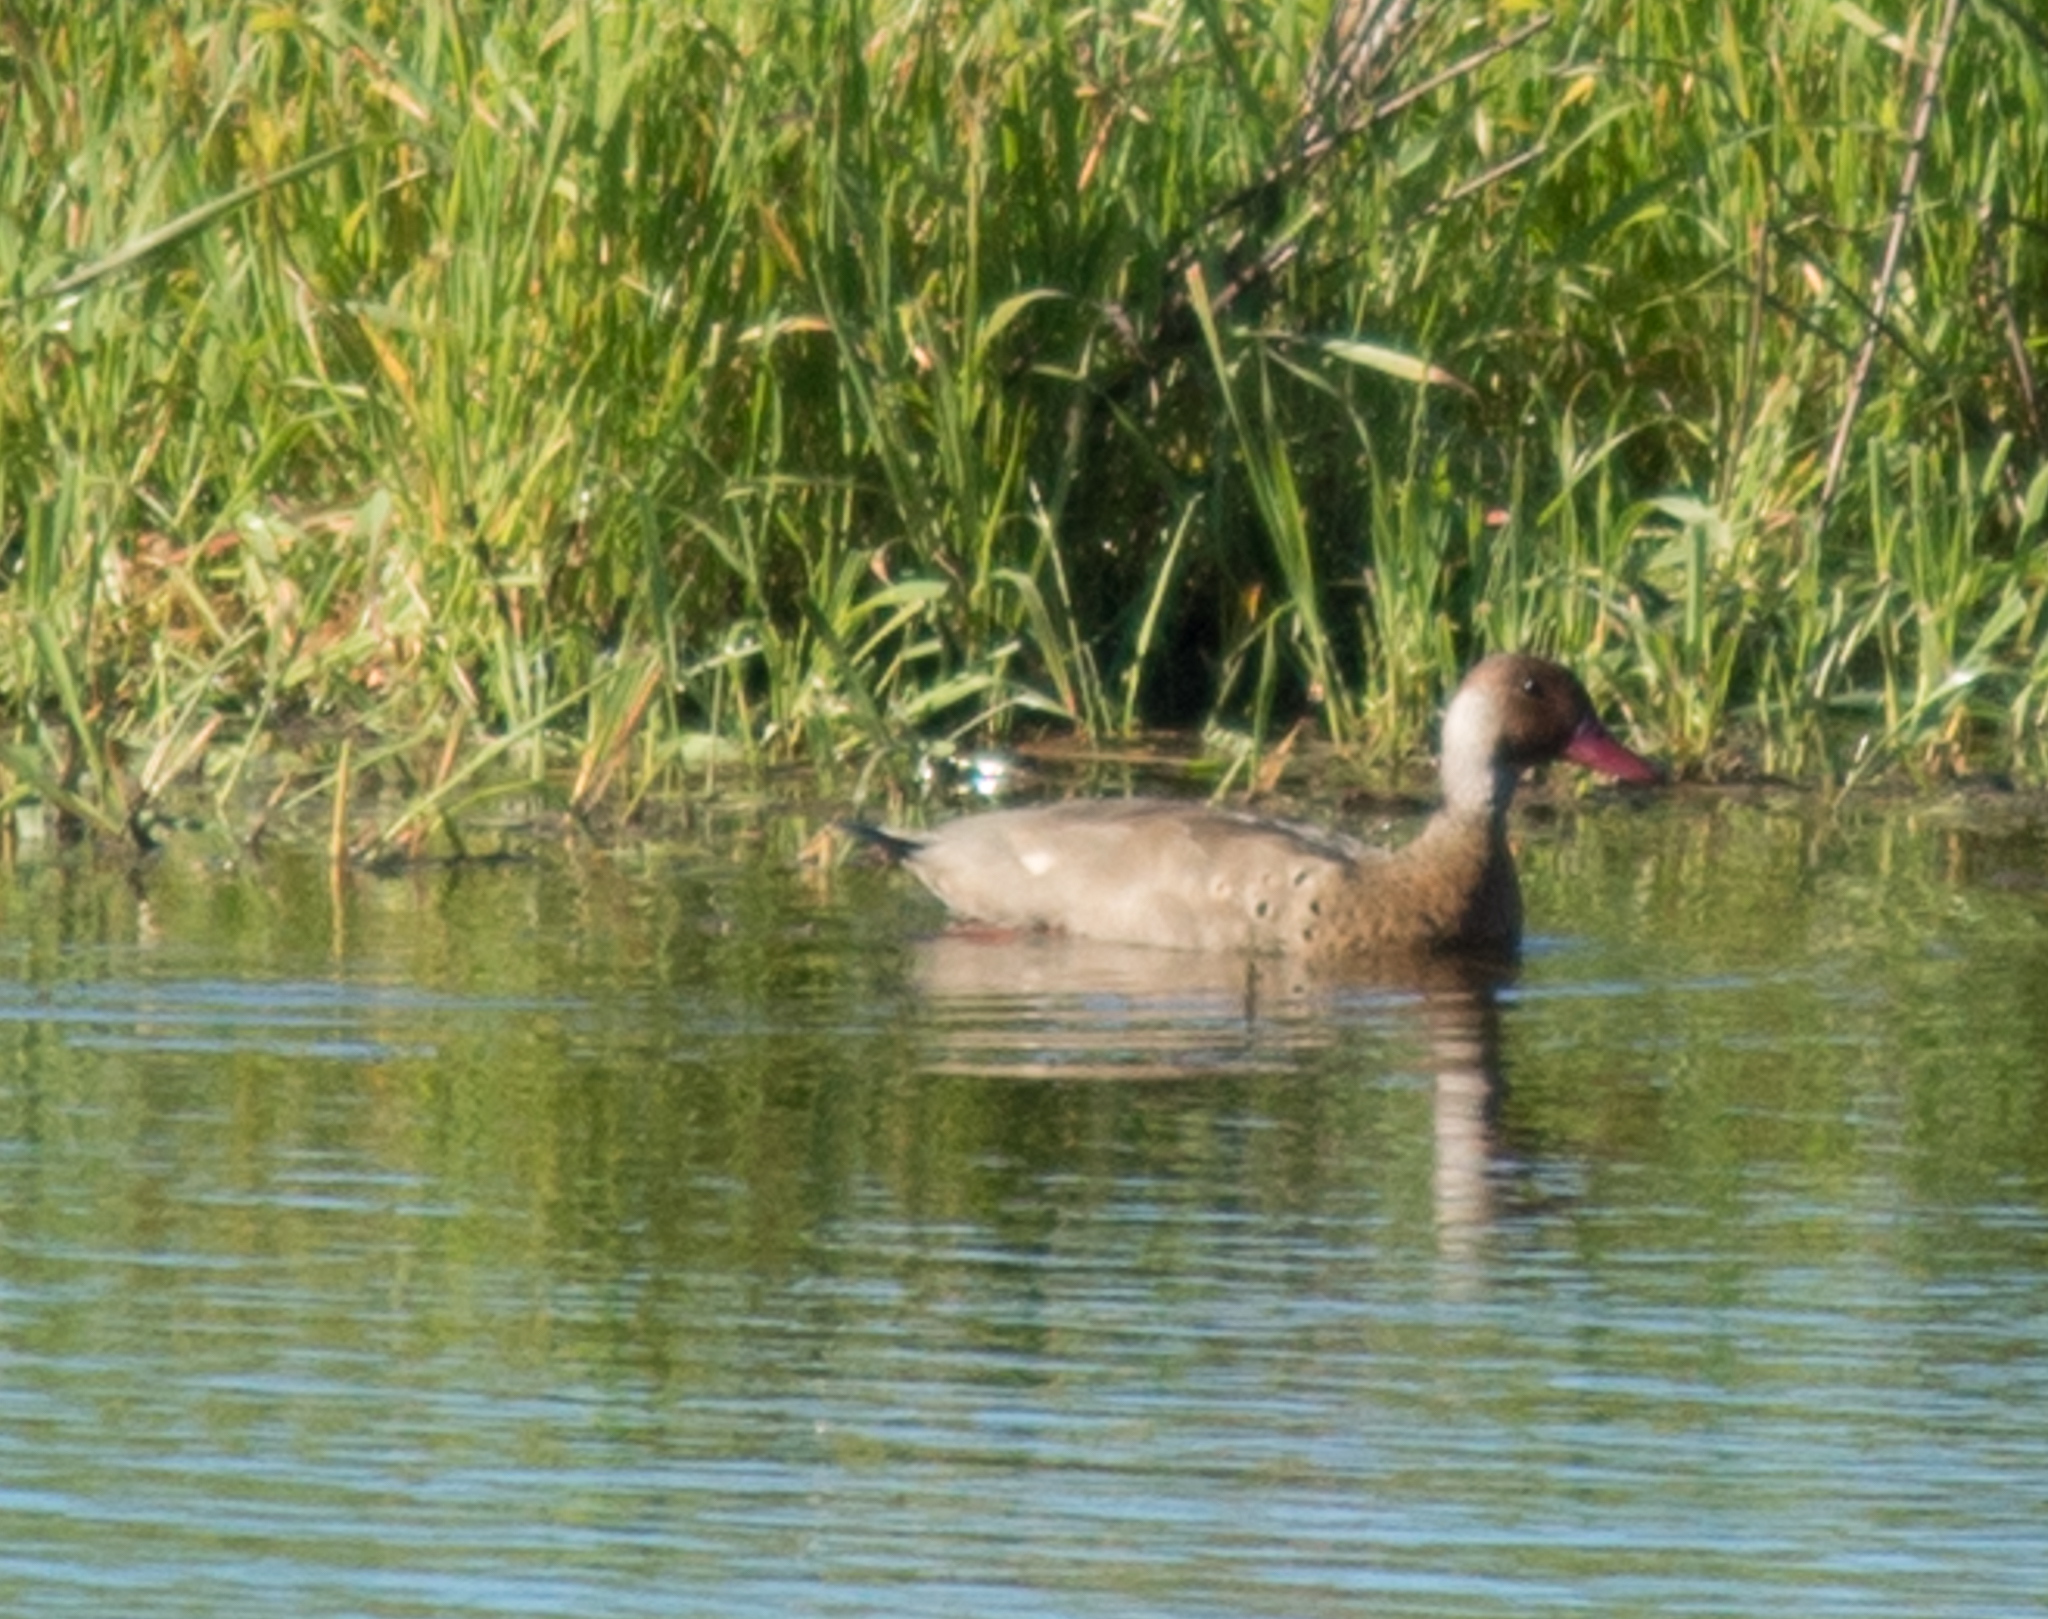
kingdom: Animalia
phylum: Chordata
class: Aves
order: Anseriformes
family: Anatidae
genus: Amazonetta
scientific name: Amazonetta brasiliensis
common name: Brazilian teal
